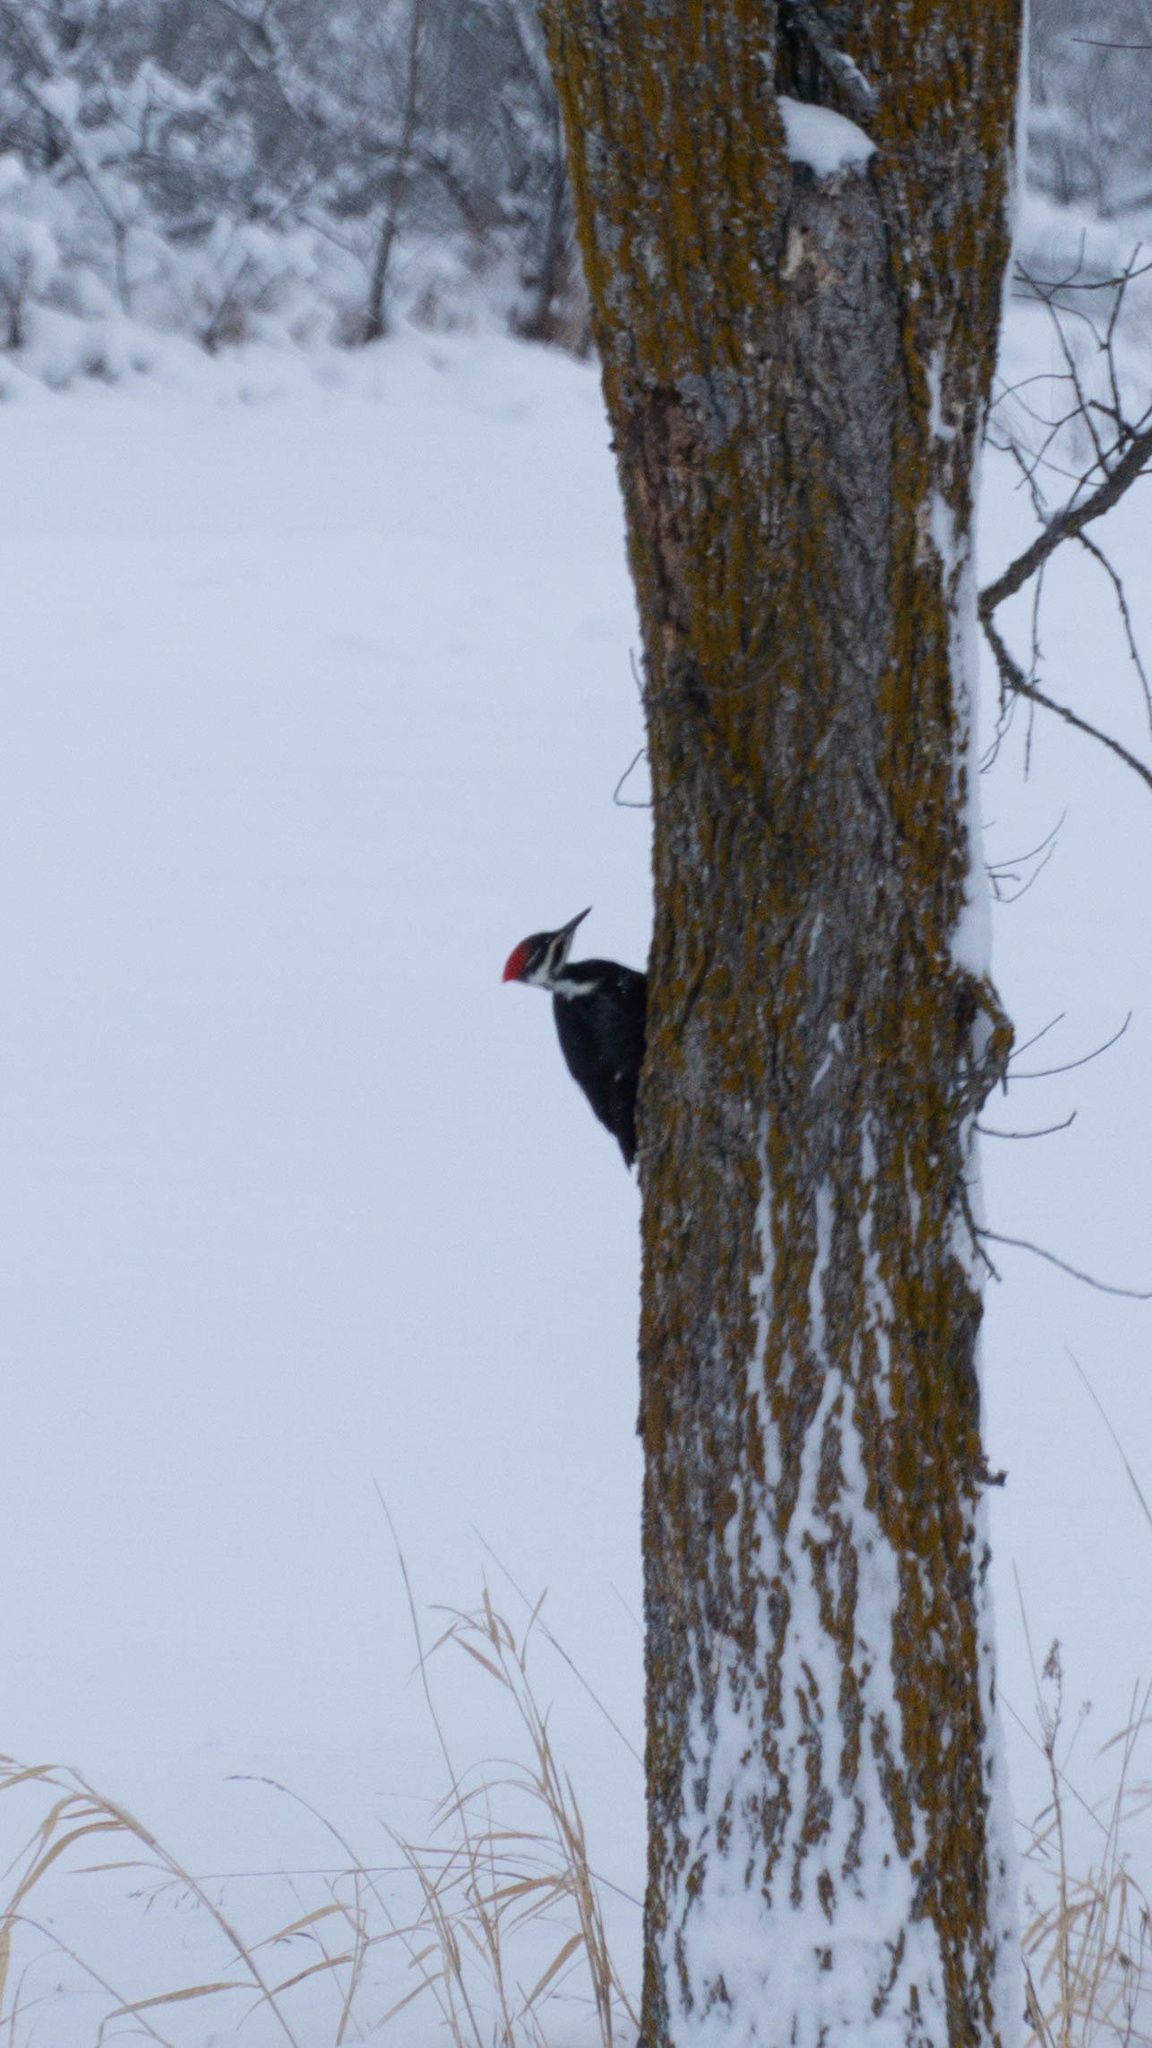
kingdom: Animalia
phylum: Chordata
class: Aves
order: Piciformes
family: Picidae
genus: Dryocopus
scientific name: Dryocopus pileatus
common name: Pileated woodpecker
